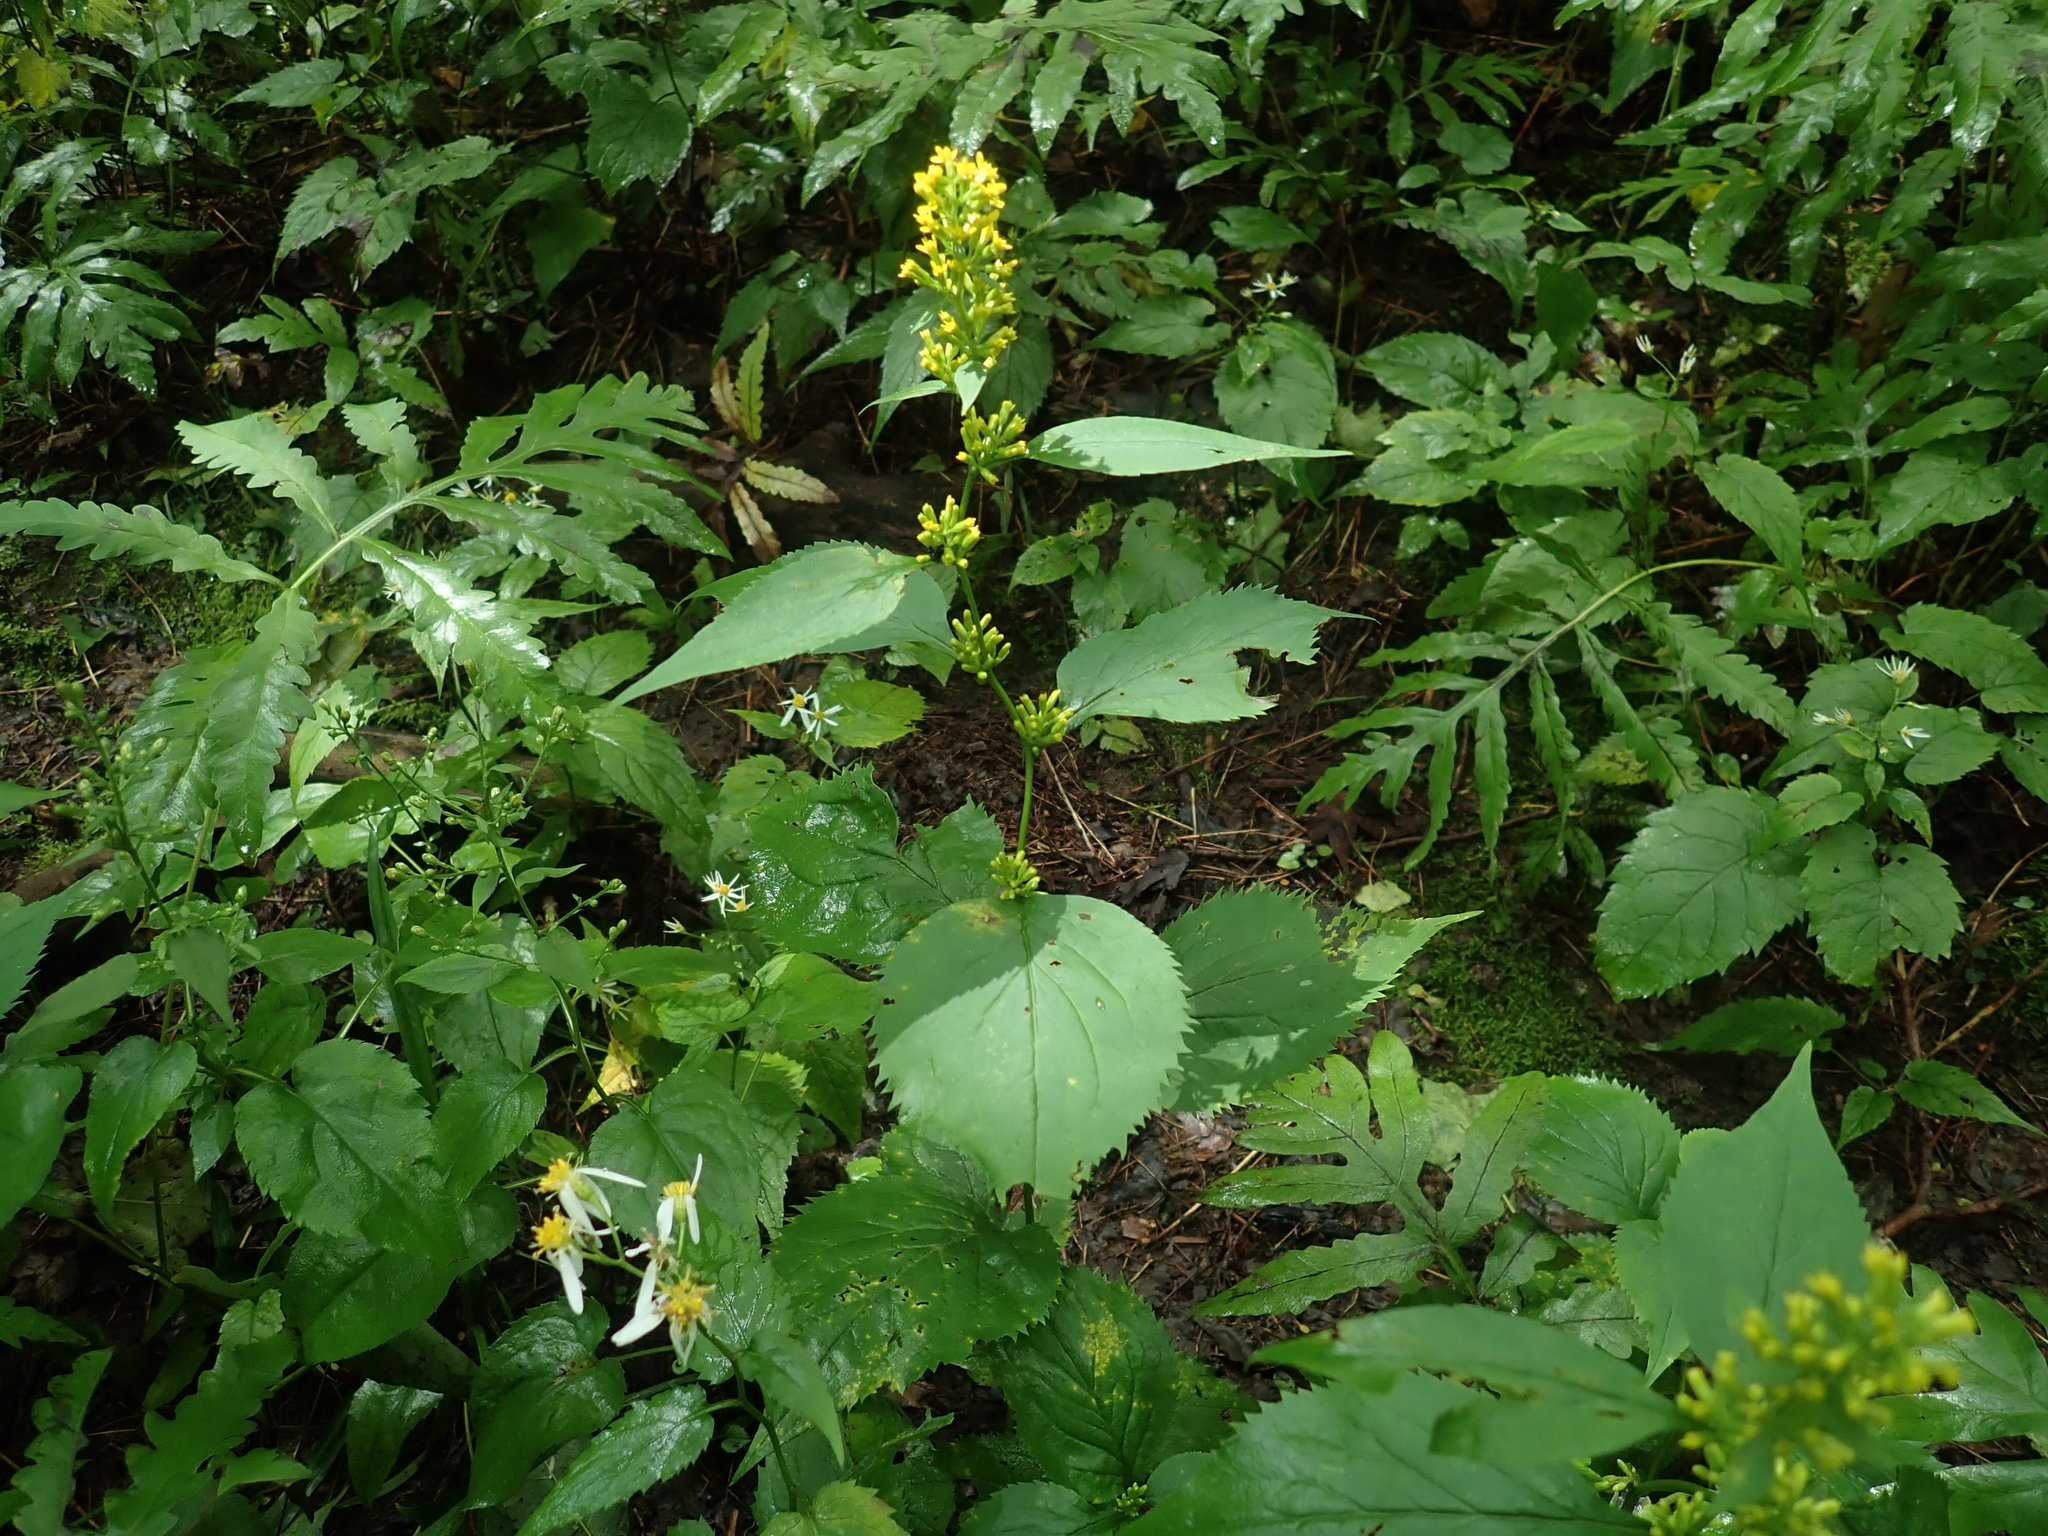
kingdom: Plantae
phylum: Tracheophyta
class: Magnoliopsida
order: Asterales
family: Asteraceae
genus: Solidago
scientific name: Solidago flexicaulis
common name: Zig-zag goldenrod
